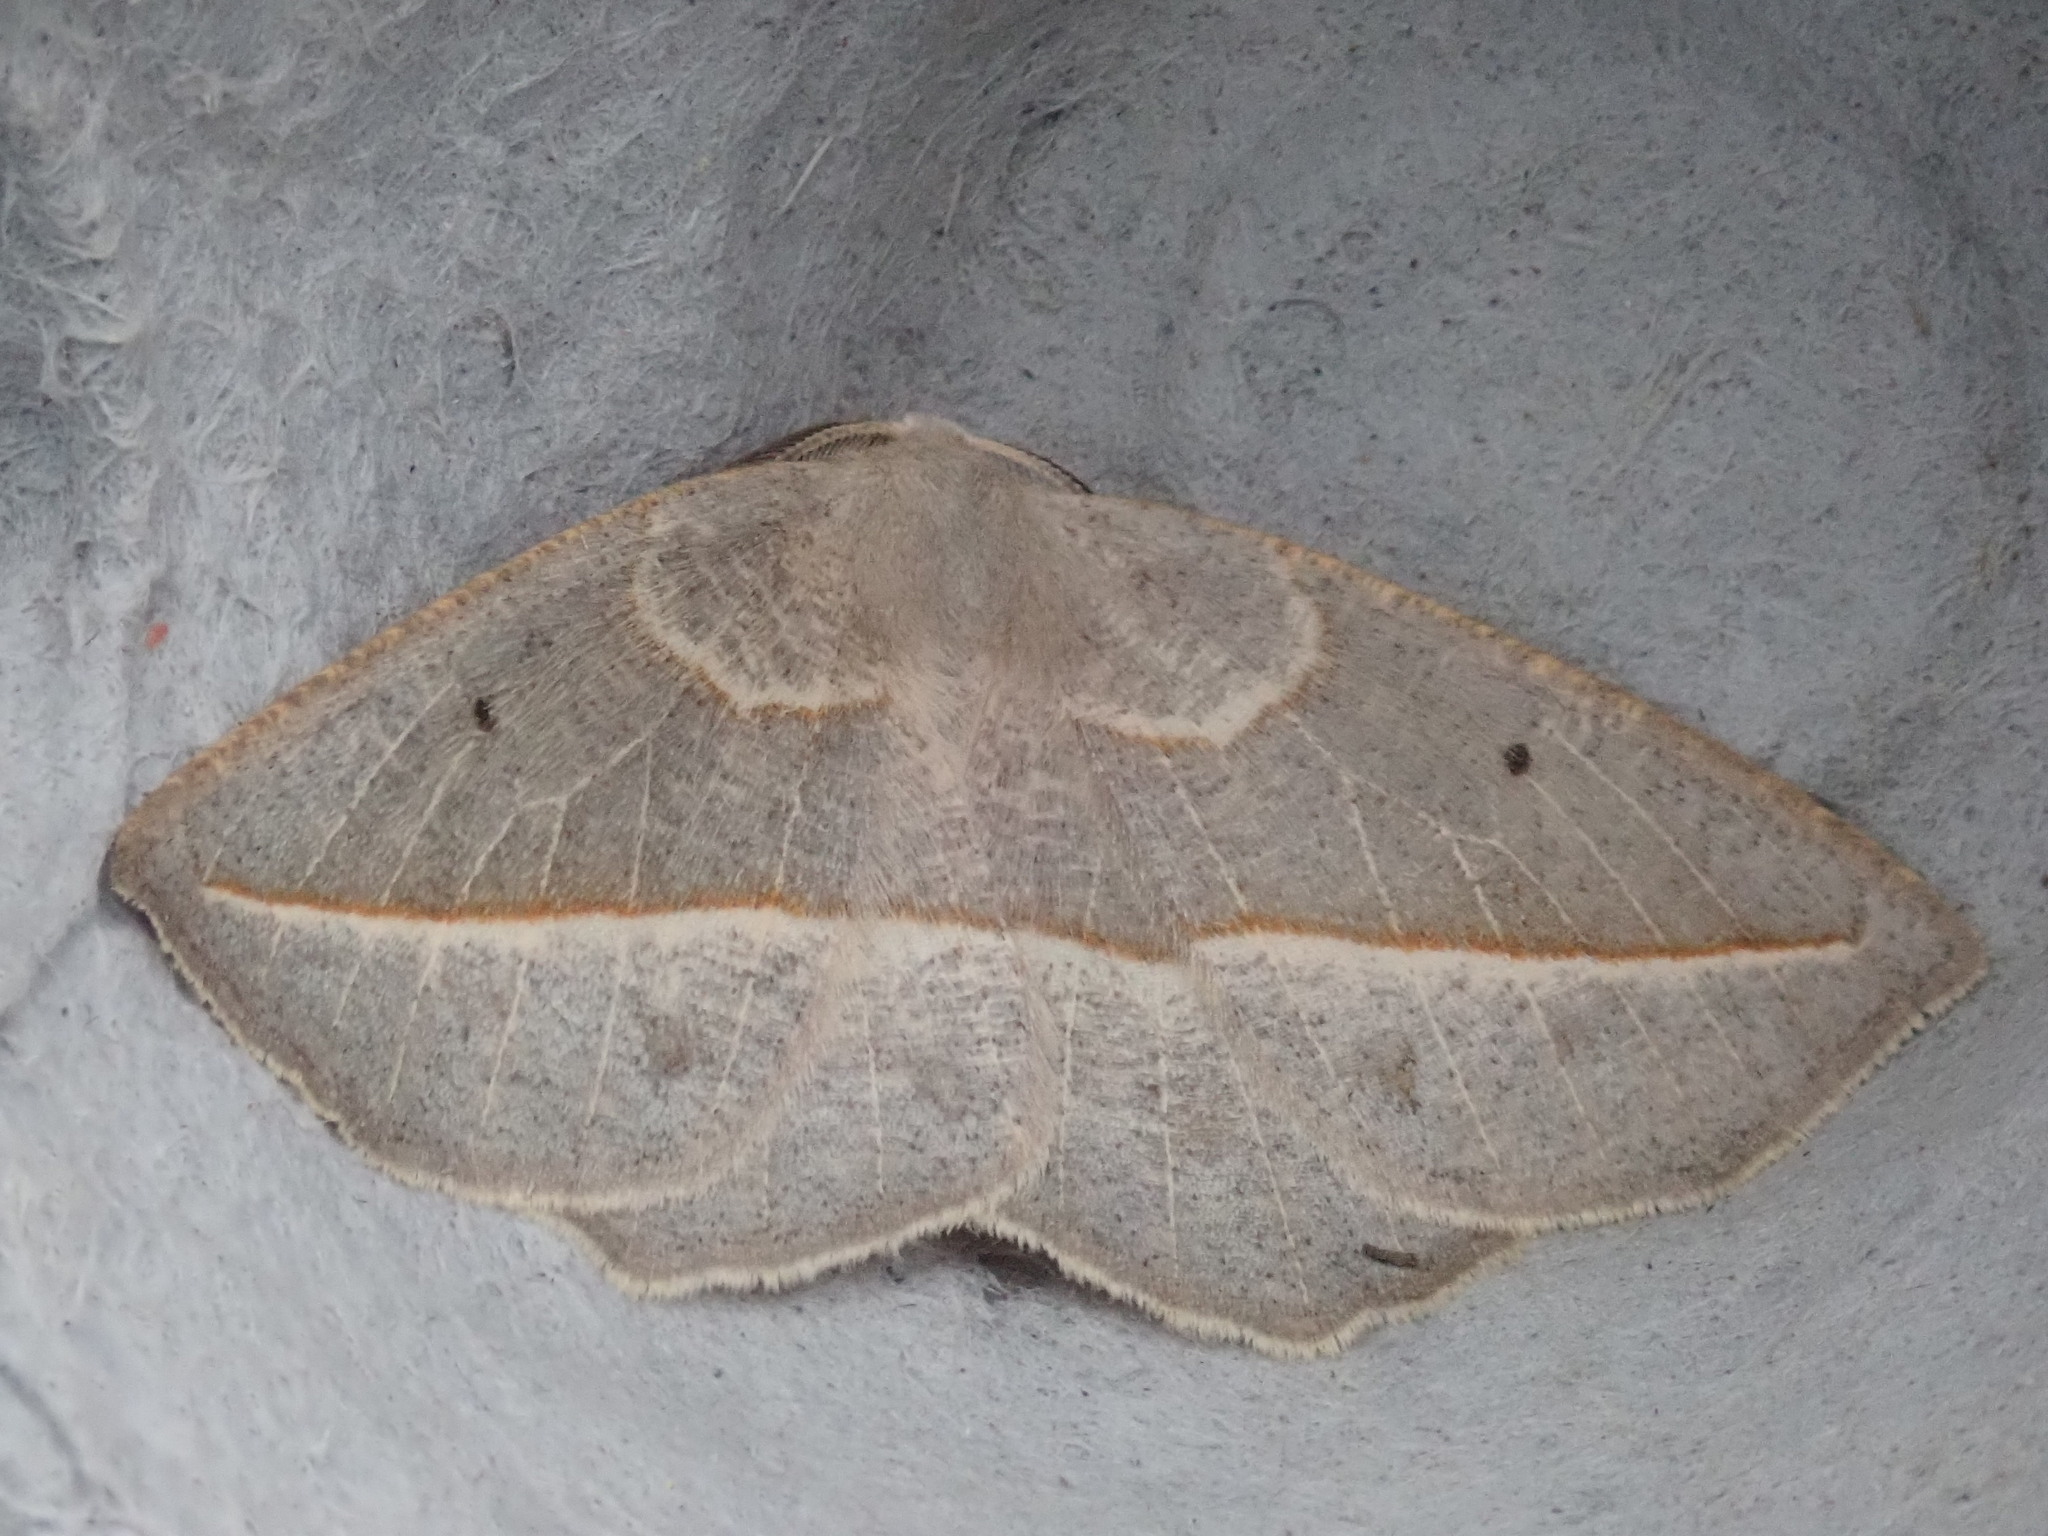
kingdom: Animalia
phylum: Arthropoda
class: Insecta
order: Lepidoptera
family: Geometridae
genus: Eusarca
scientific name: Eusarca confusaria
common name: Confused eusarca
